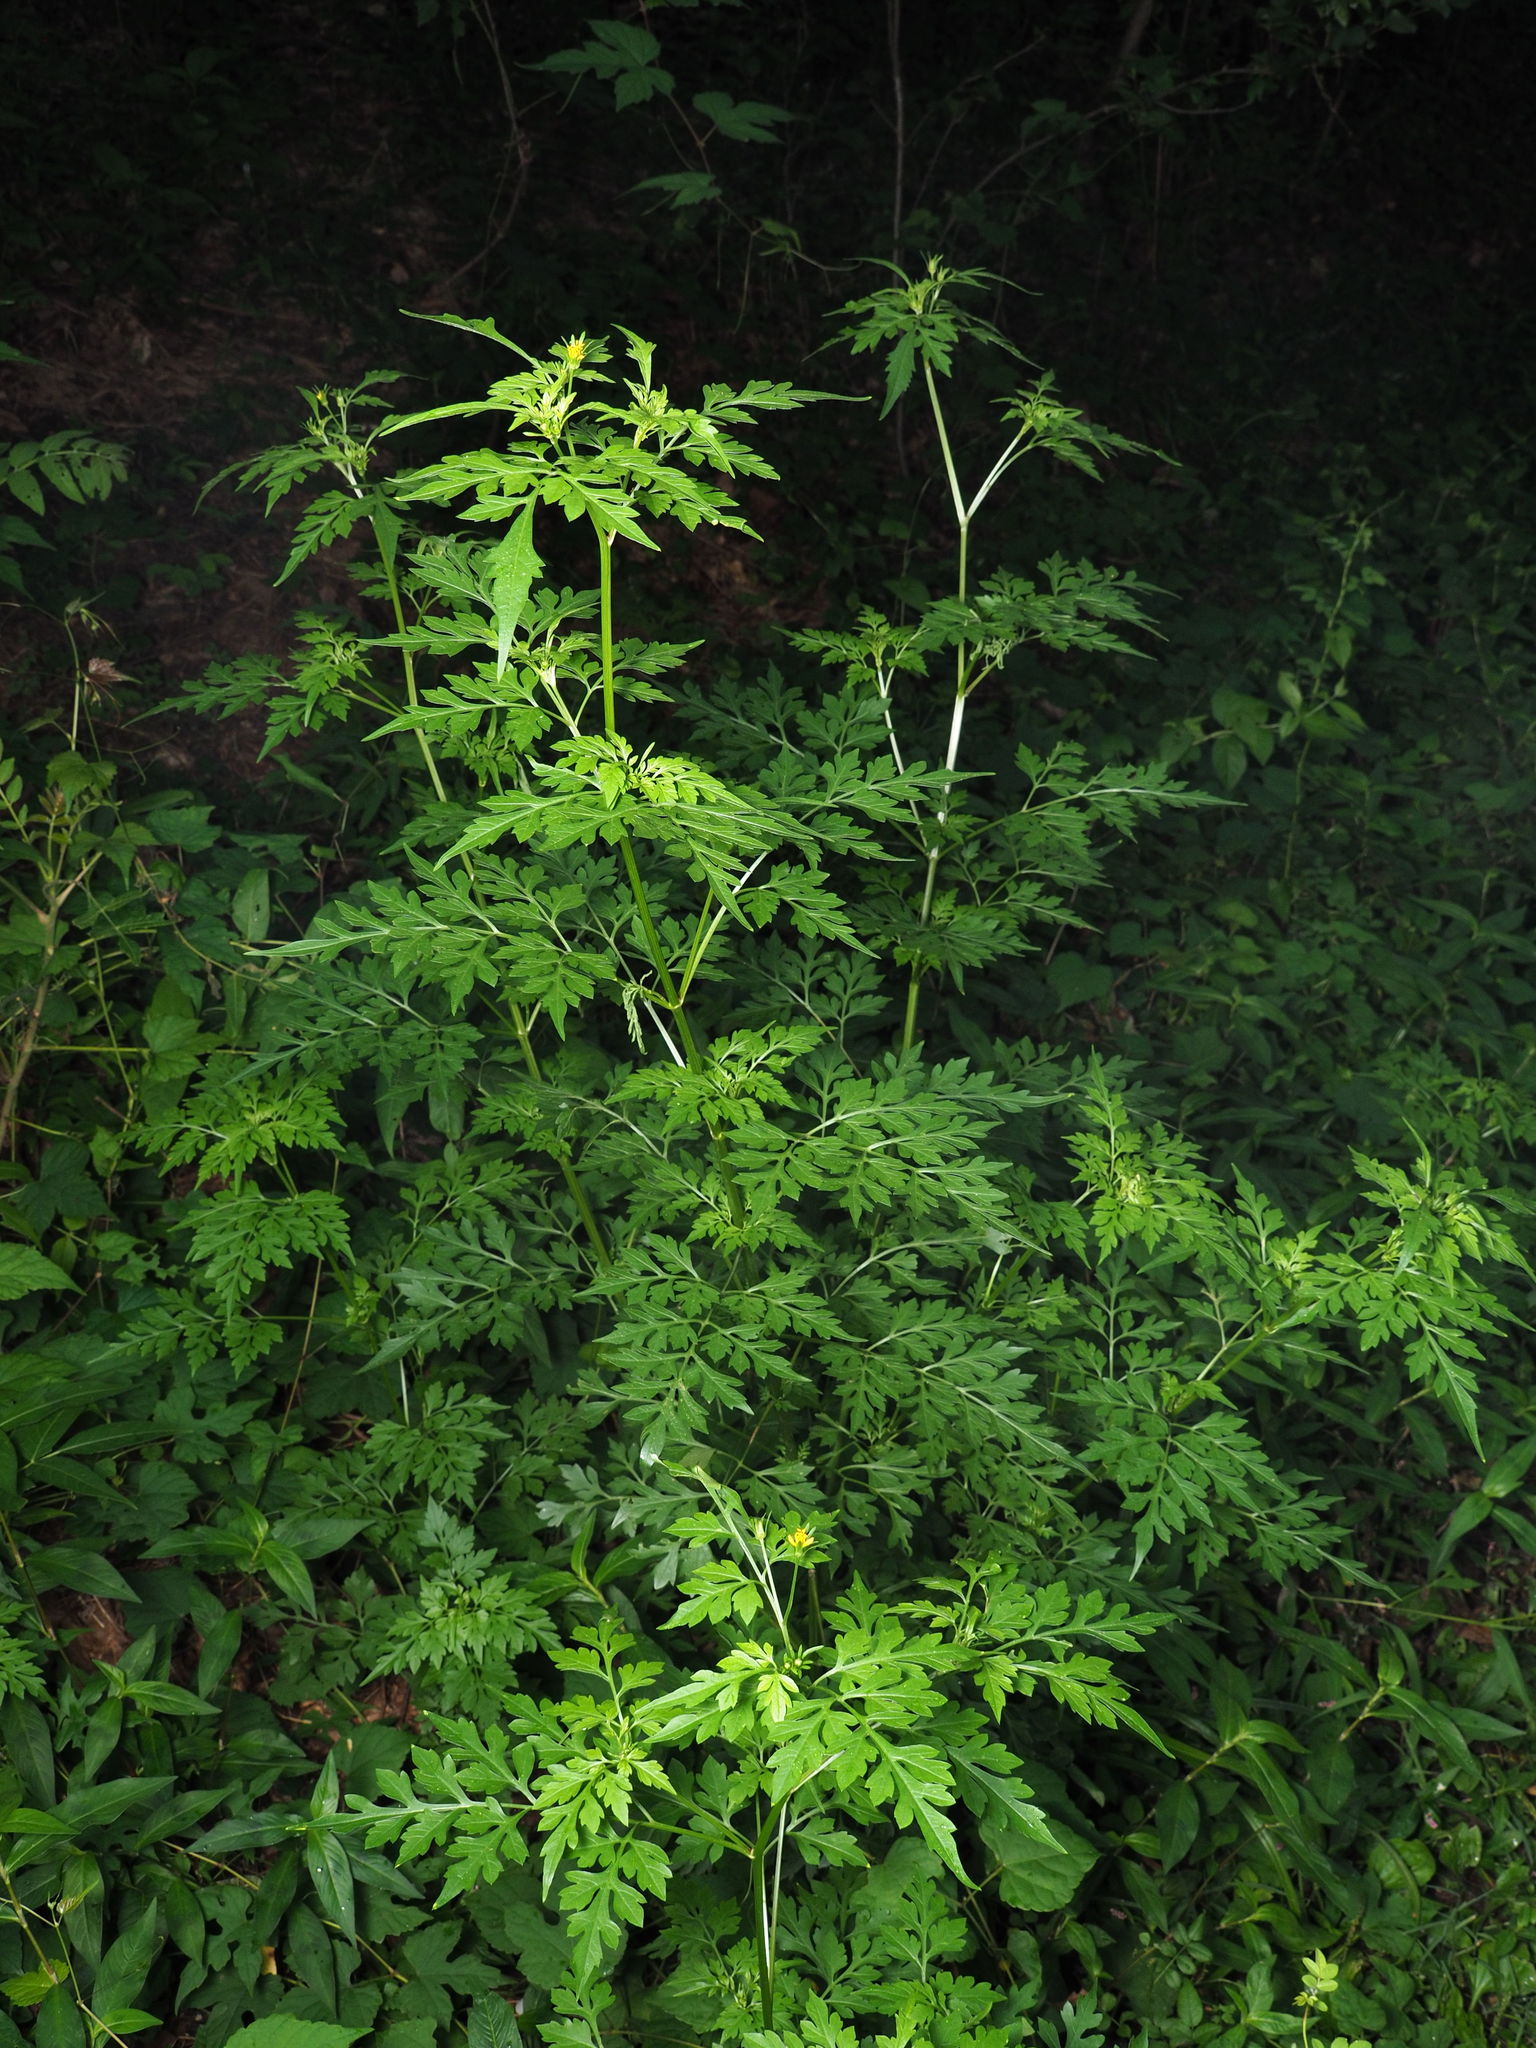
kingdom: Plantae
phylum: Tracheophyta
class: Magnoliopsida
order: Asterales
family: Asteraceae
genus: Bidens
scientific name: Bidens bipinnata
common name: Spanish-needles
